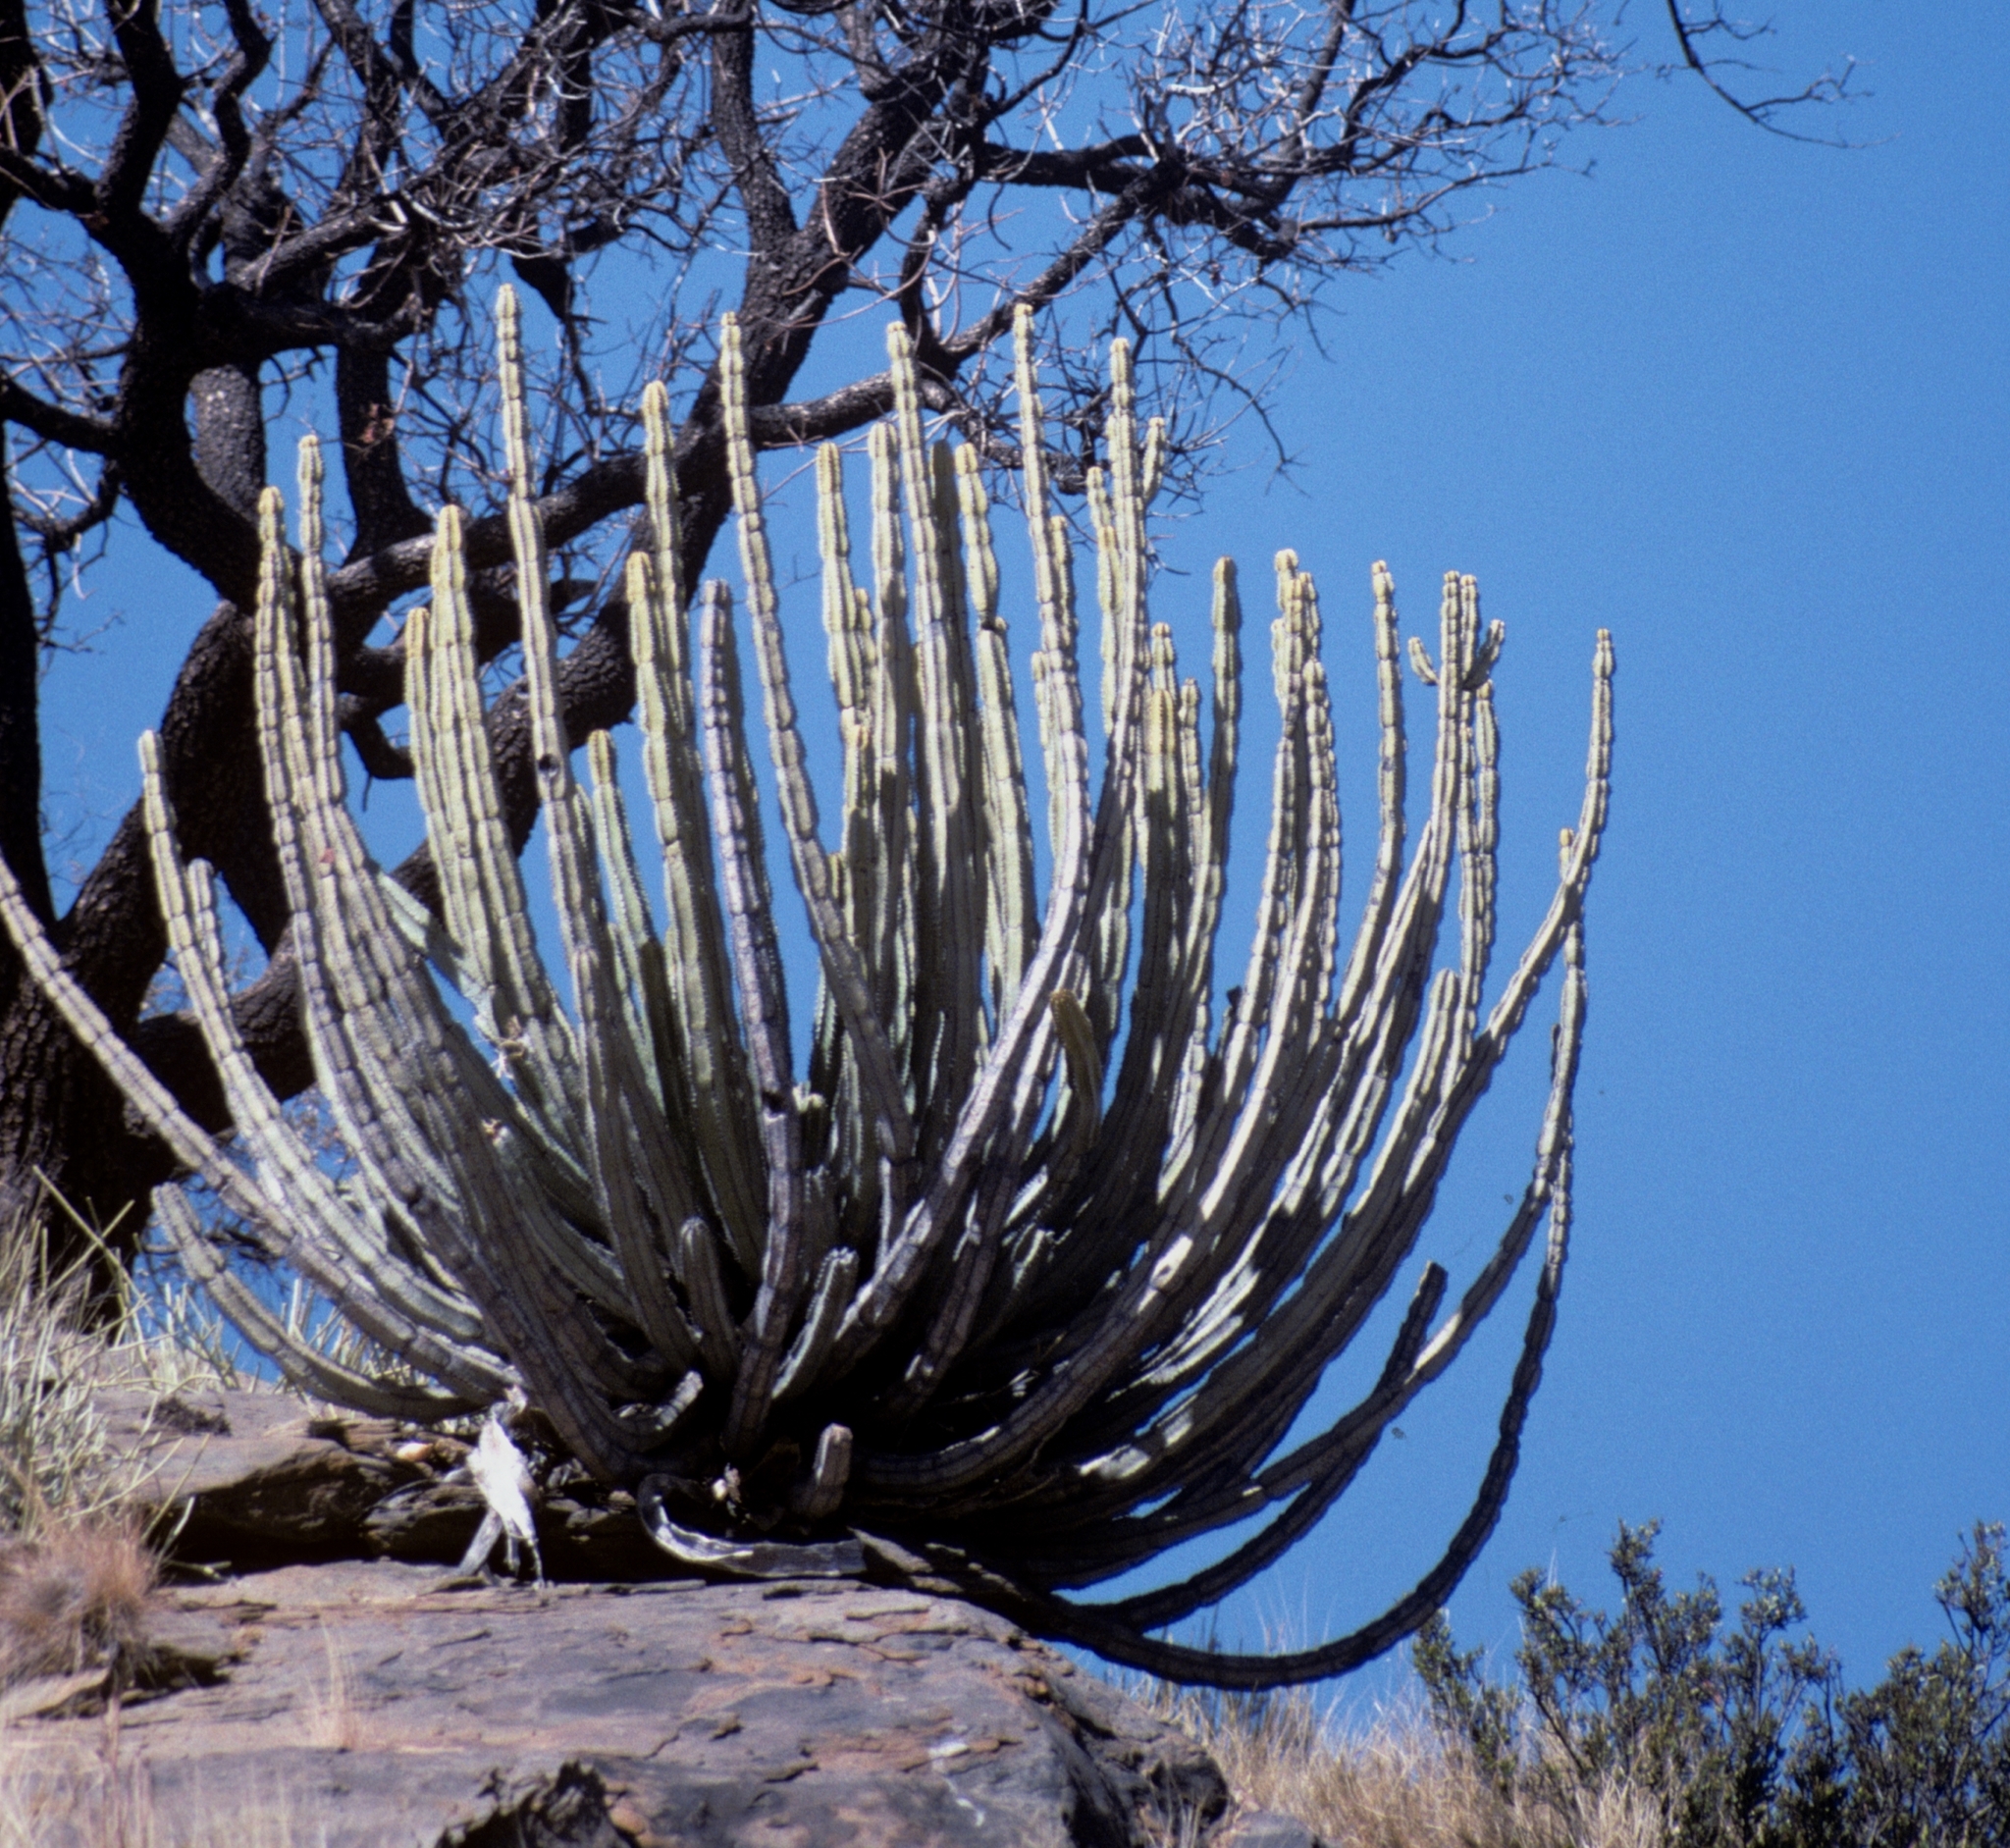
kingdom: Plantae
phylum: Tracheophyta
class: Magnoliopsida
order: Malpighiales
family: Euphorbiaceae
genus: Euphorbia
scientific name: Euphorbia virosa
